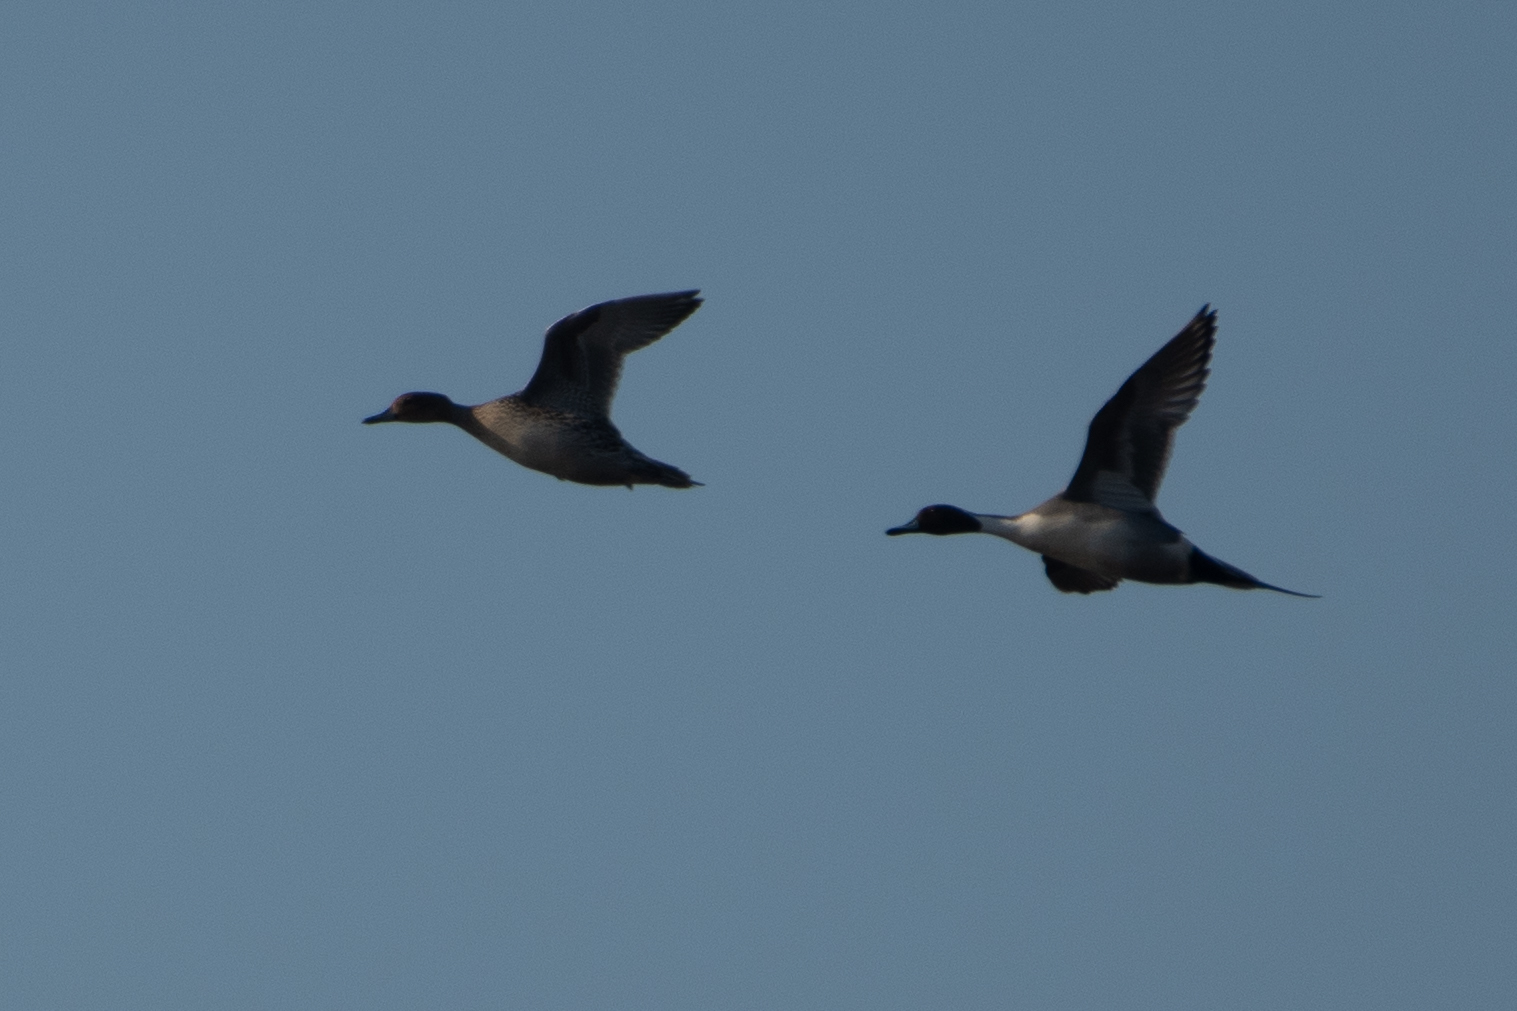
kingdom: Animalia
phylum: Chordata
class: Aves
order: Anseriformes
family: Anatidae
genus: Anas
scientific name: Anas acuta
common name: Northern pintail
